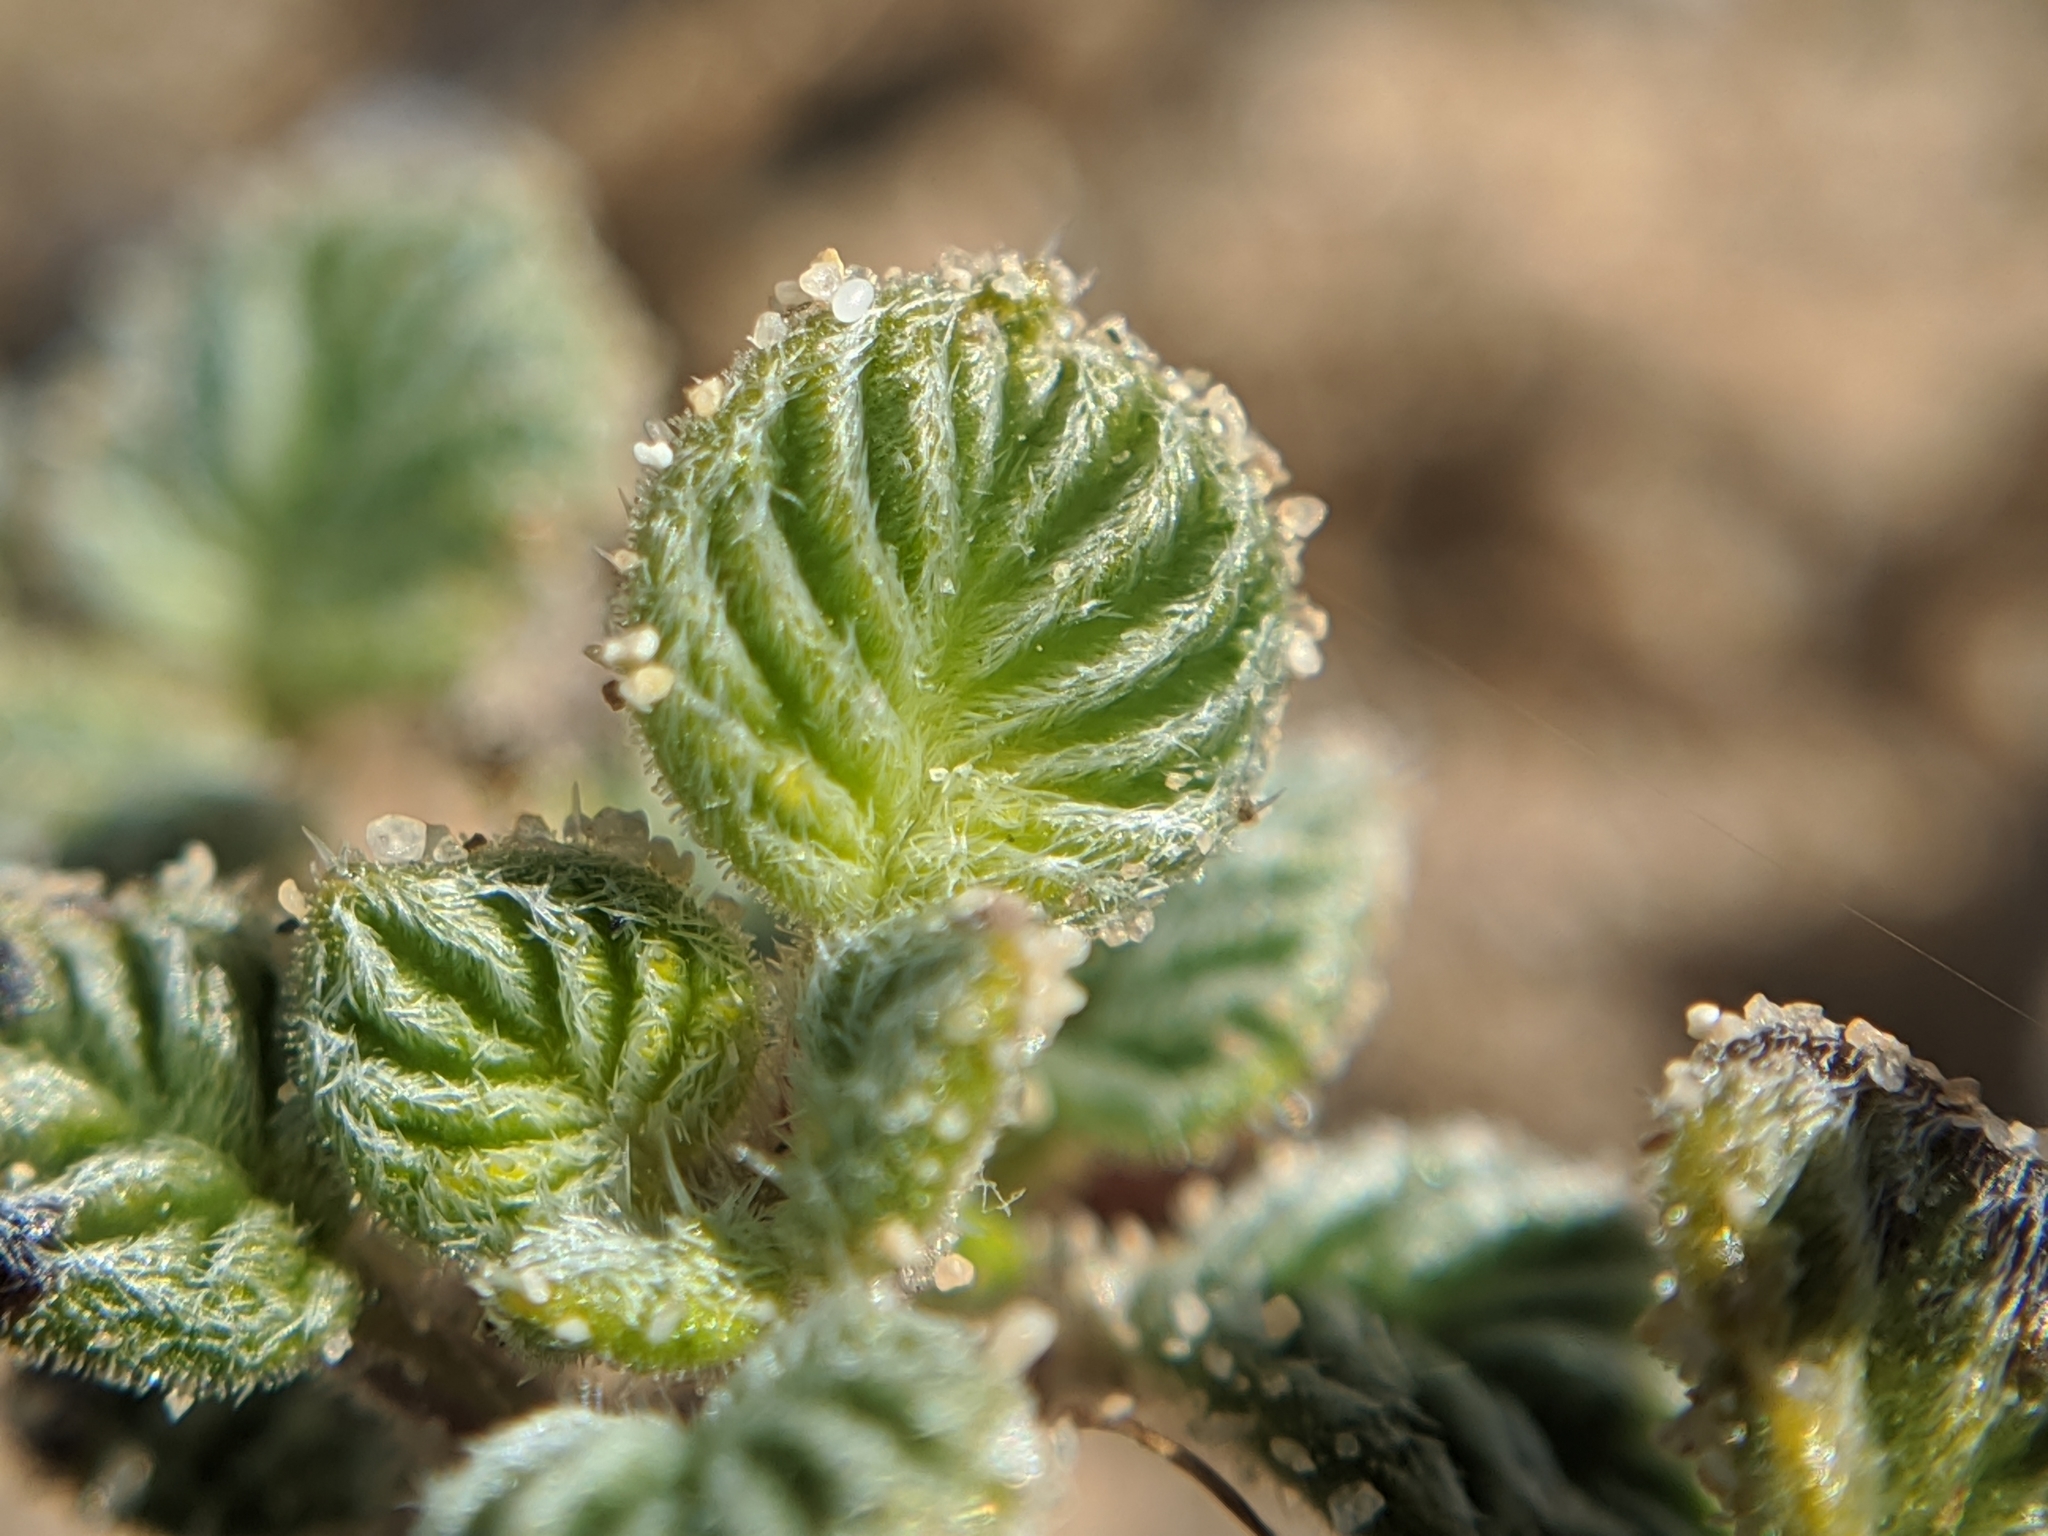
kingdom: Plantae
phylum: Tracheophyta
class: Magnoliopsida
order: Boraginales
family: Ehretiaceae
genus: Tiquilia
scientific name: Tiquilia plicata
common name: Fan-leaf tiquilia
